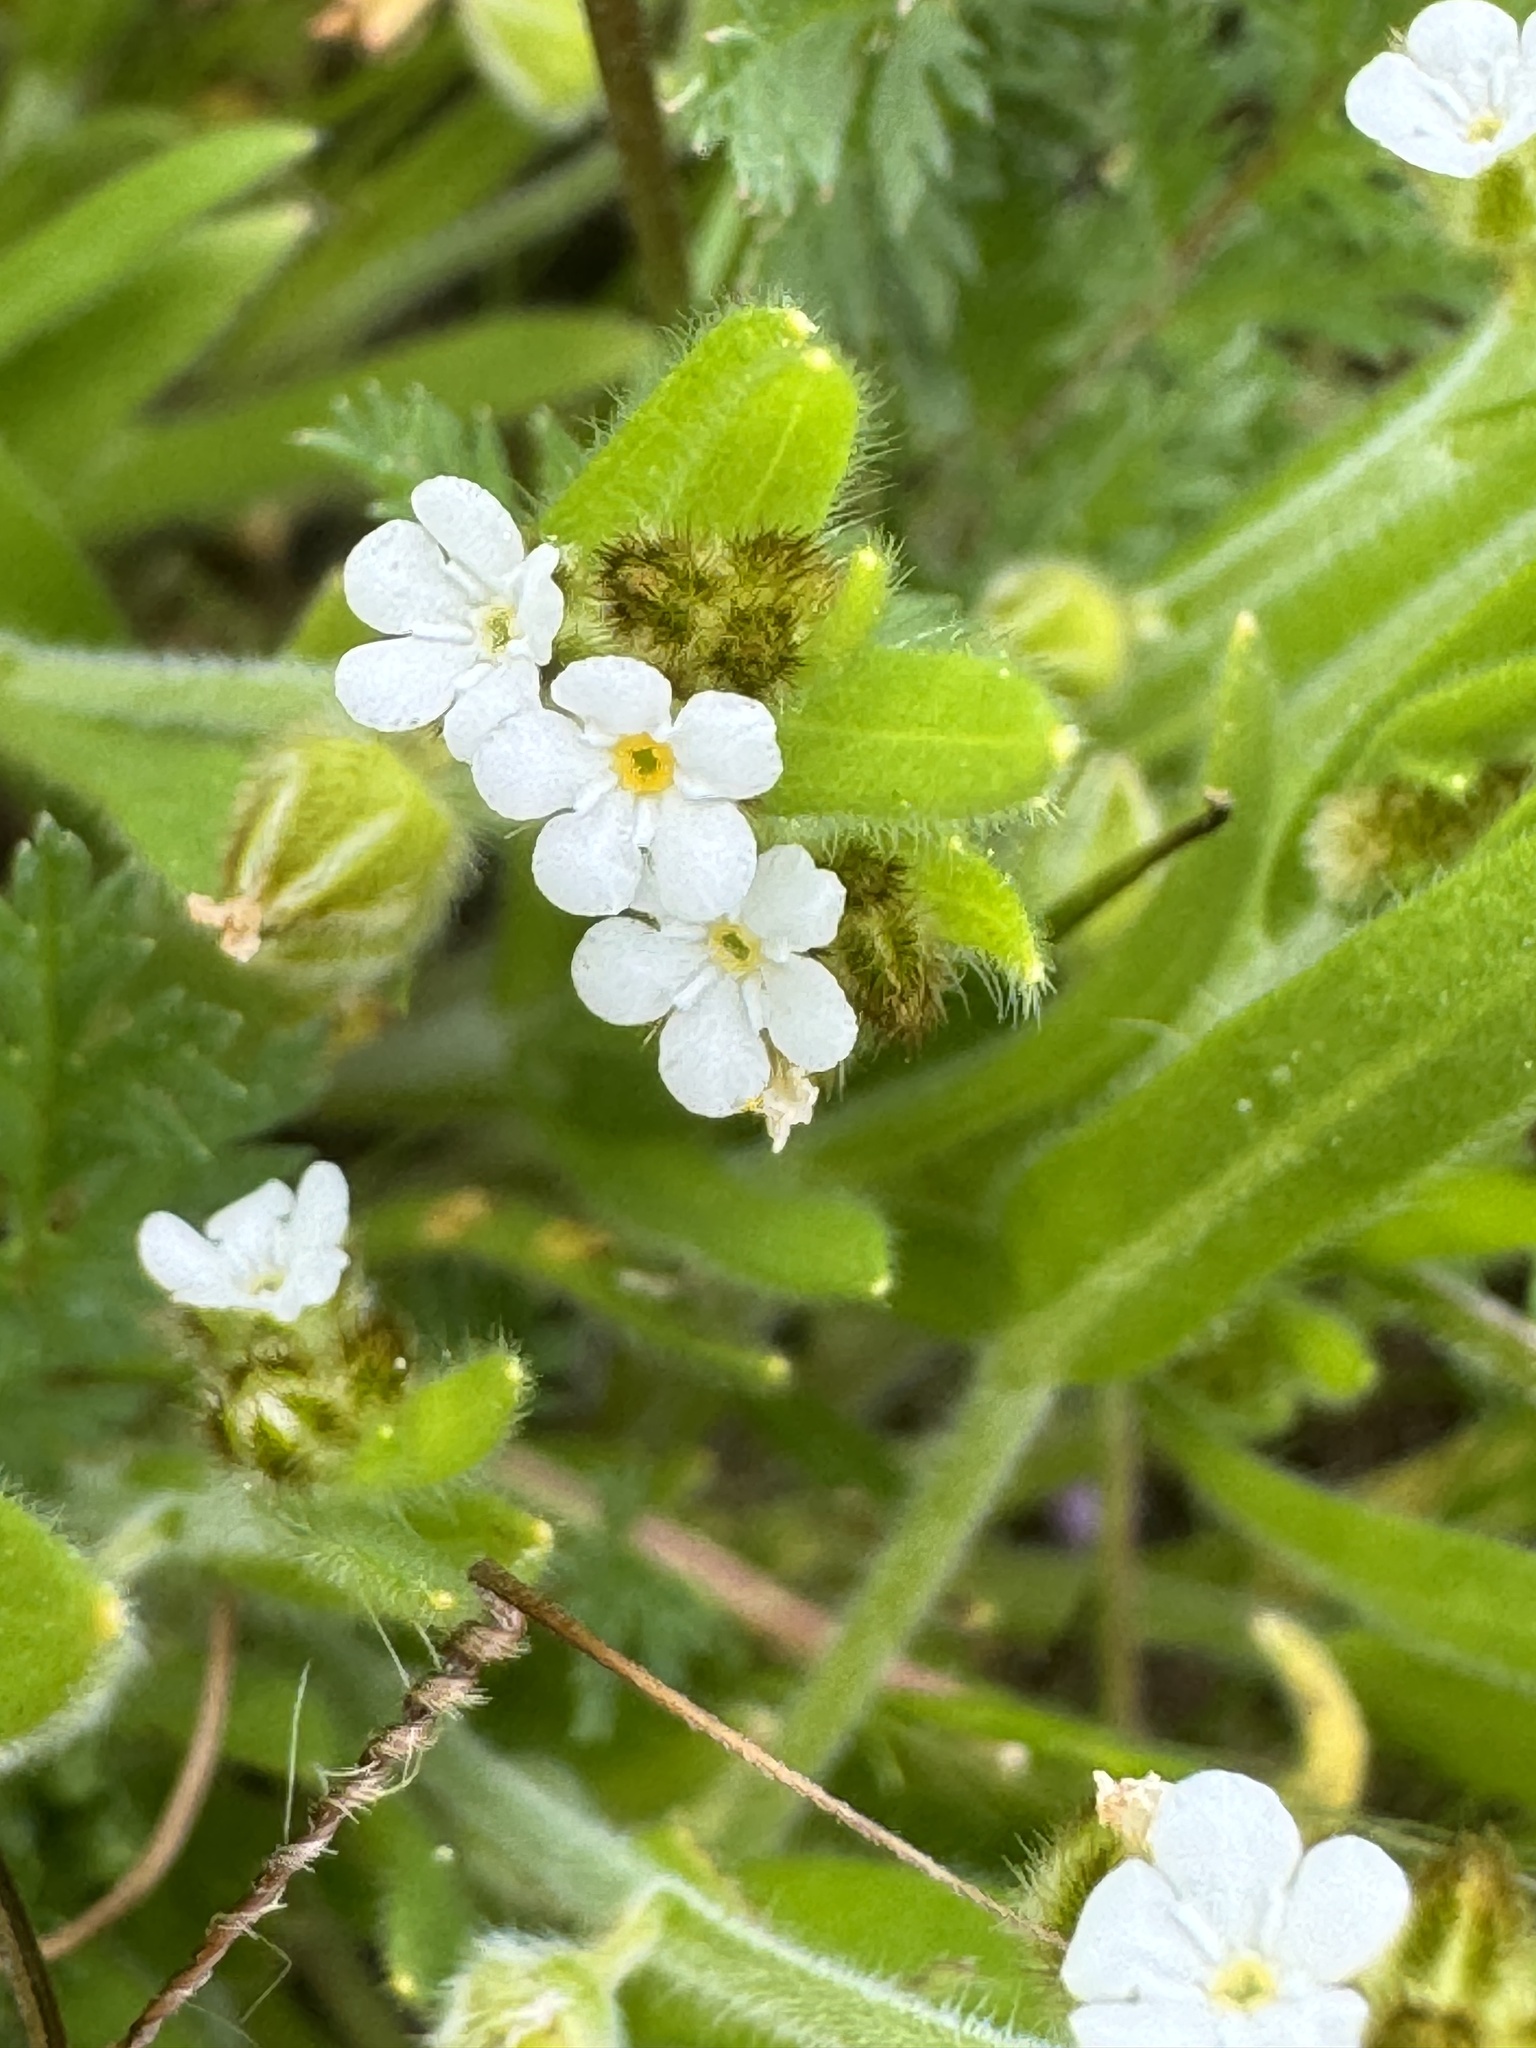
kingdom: Plantae
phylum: Tracheophyta
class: Magnoliopsida
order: Boraginales
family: Boraginaceae
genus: Cryptantha
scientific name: Cryptantha intermedia
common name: Clearwater cryptantha
